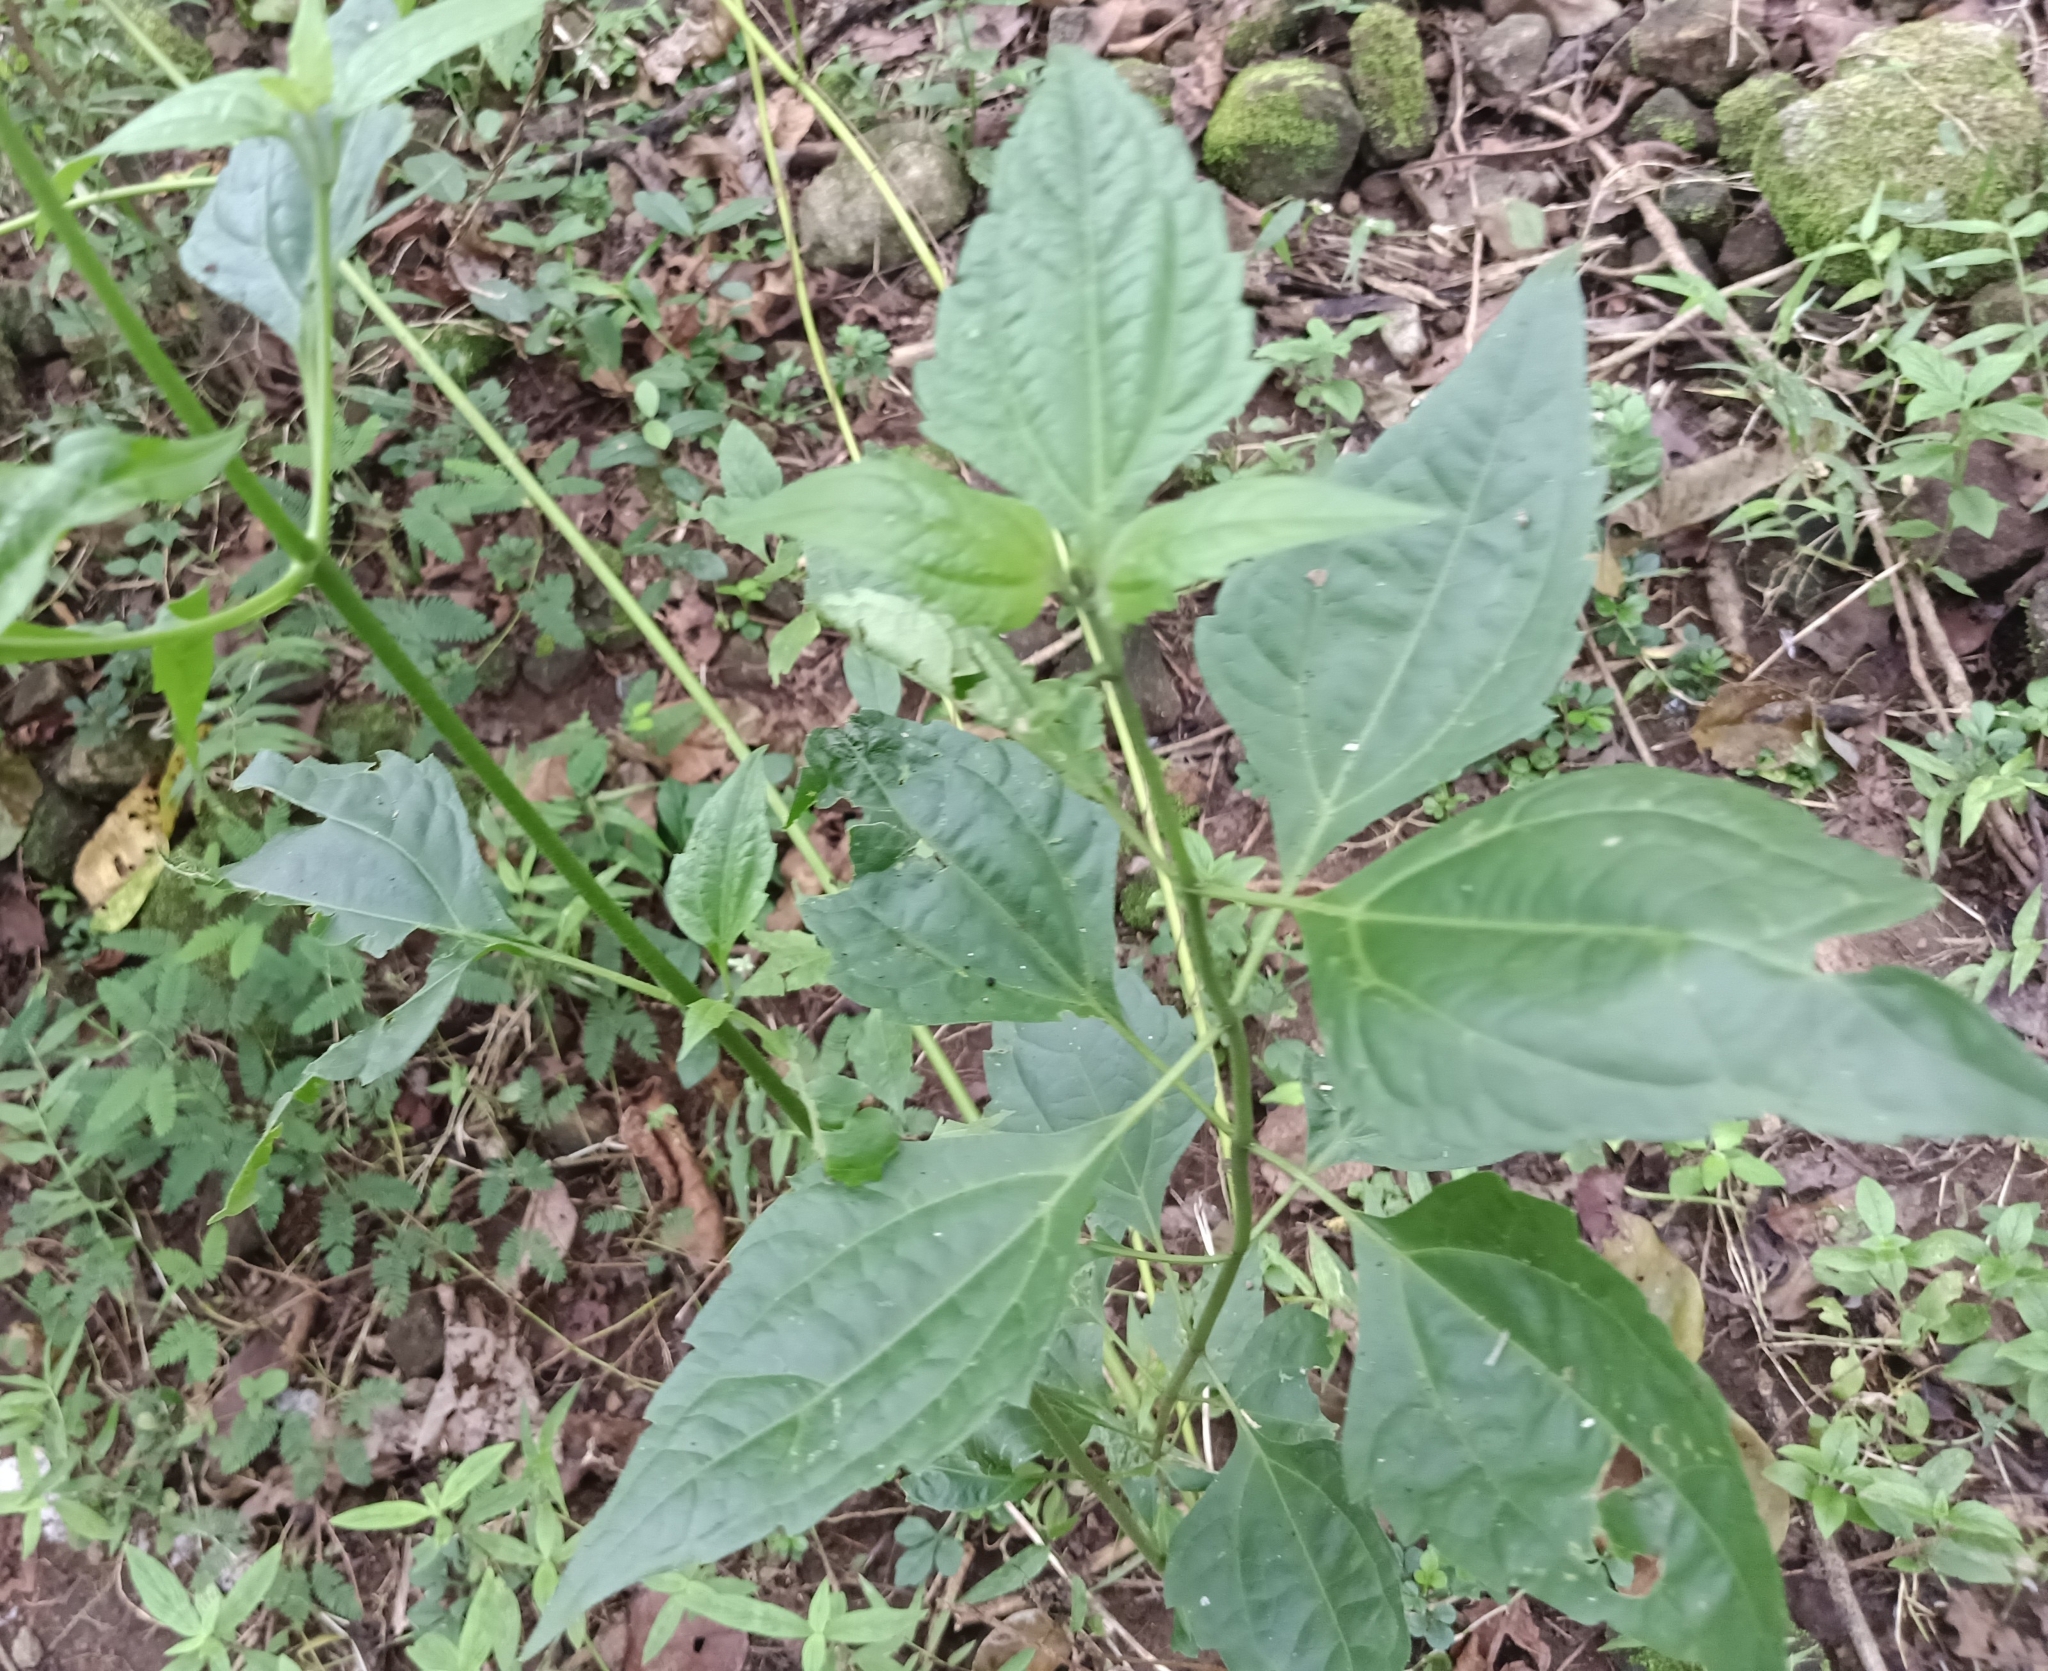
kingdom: Plantae
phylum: Tracheophyta
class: Magnoliopsida
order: Asterales
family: Asteraceae
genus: Chromolaena
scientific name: Chromolaena odorata
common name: Siamweed
